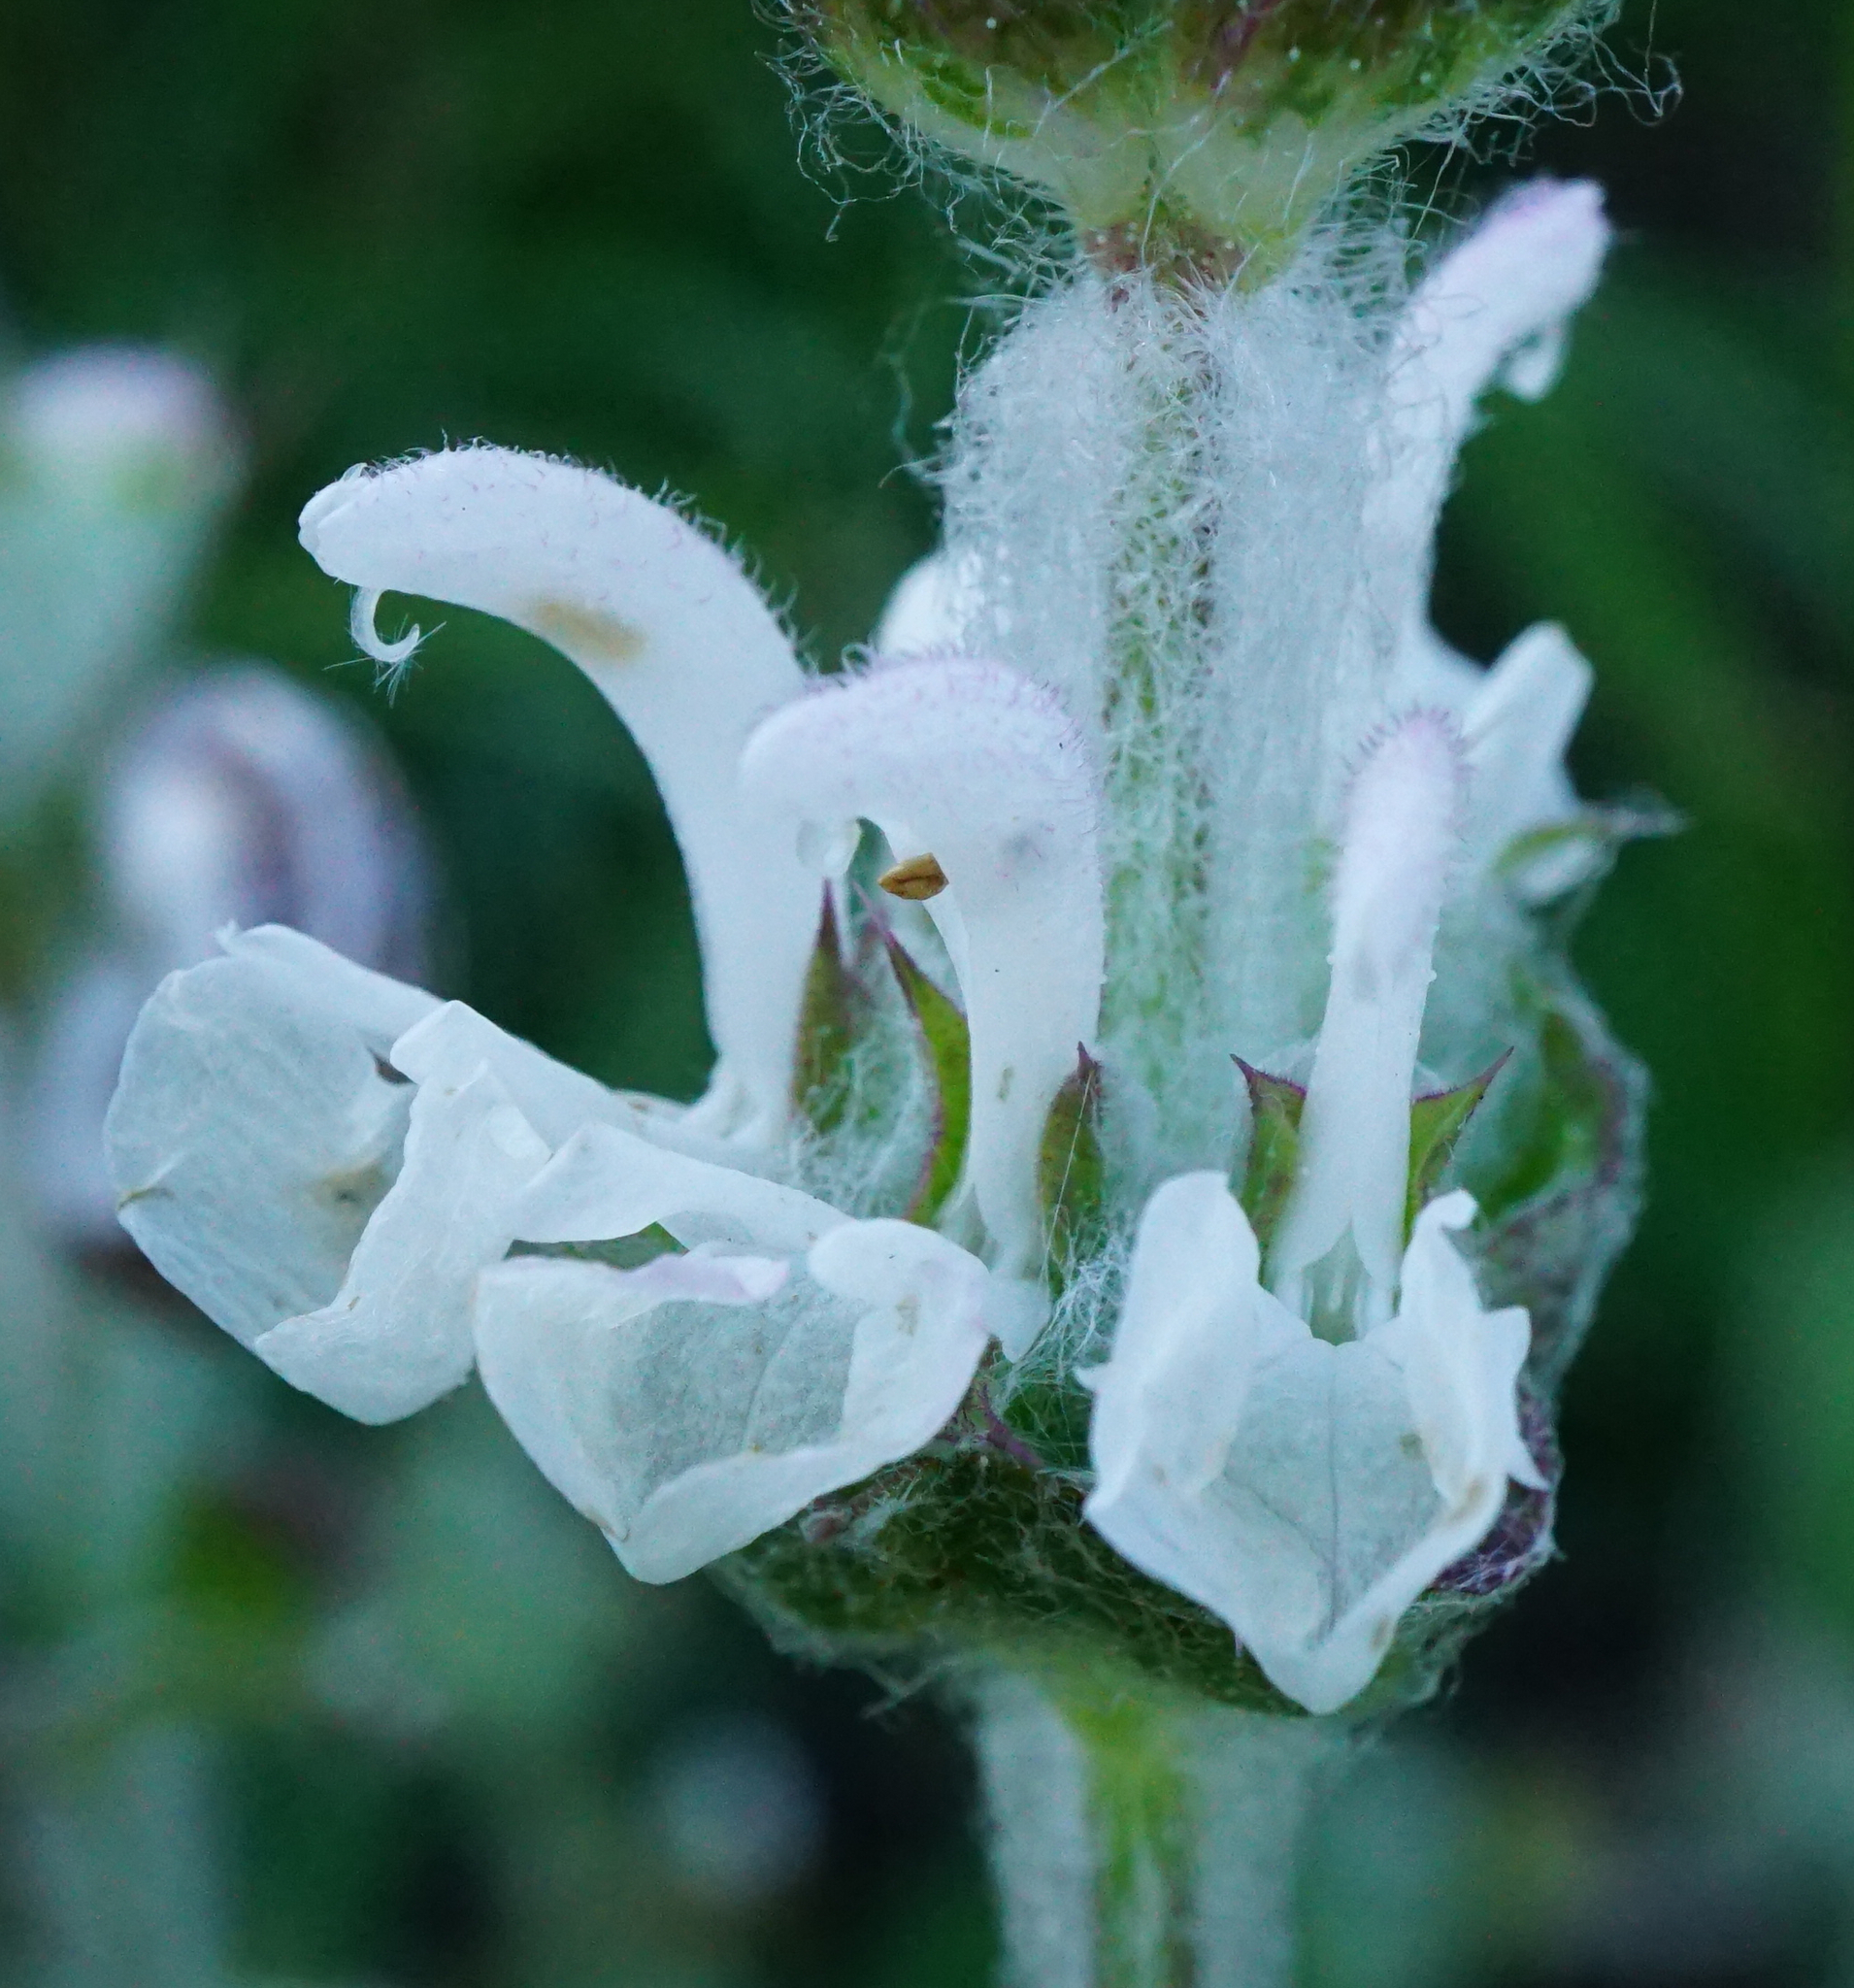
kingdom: Plantae
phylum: Tracheophyta
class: Magnoliopsida
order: Lamiales
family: Lamiaceae
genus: Salvia
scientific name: Salvia aethiopis
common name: Mediterranean sage
